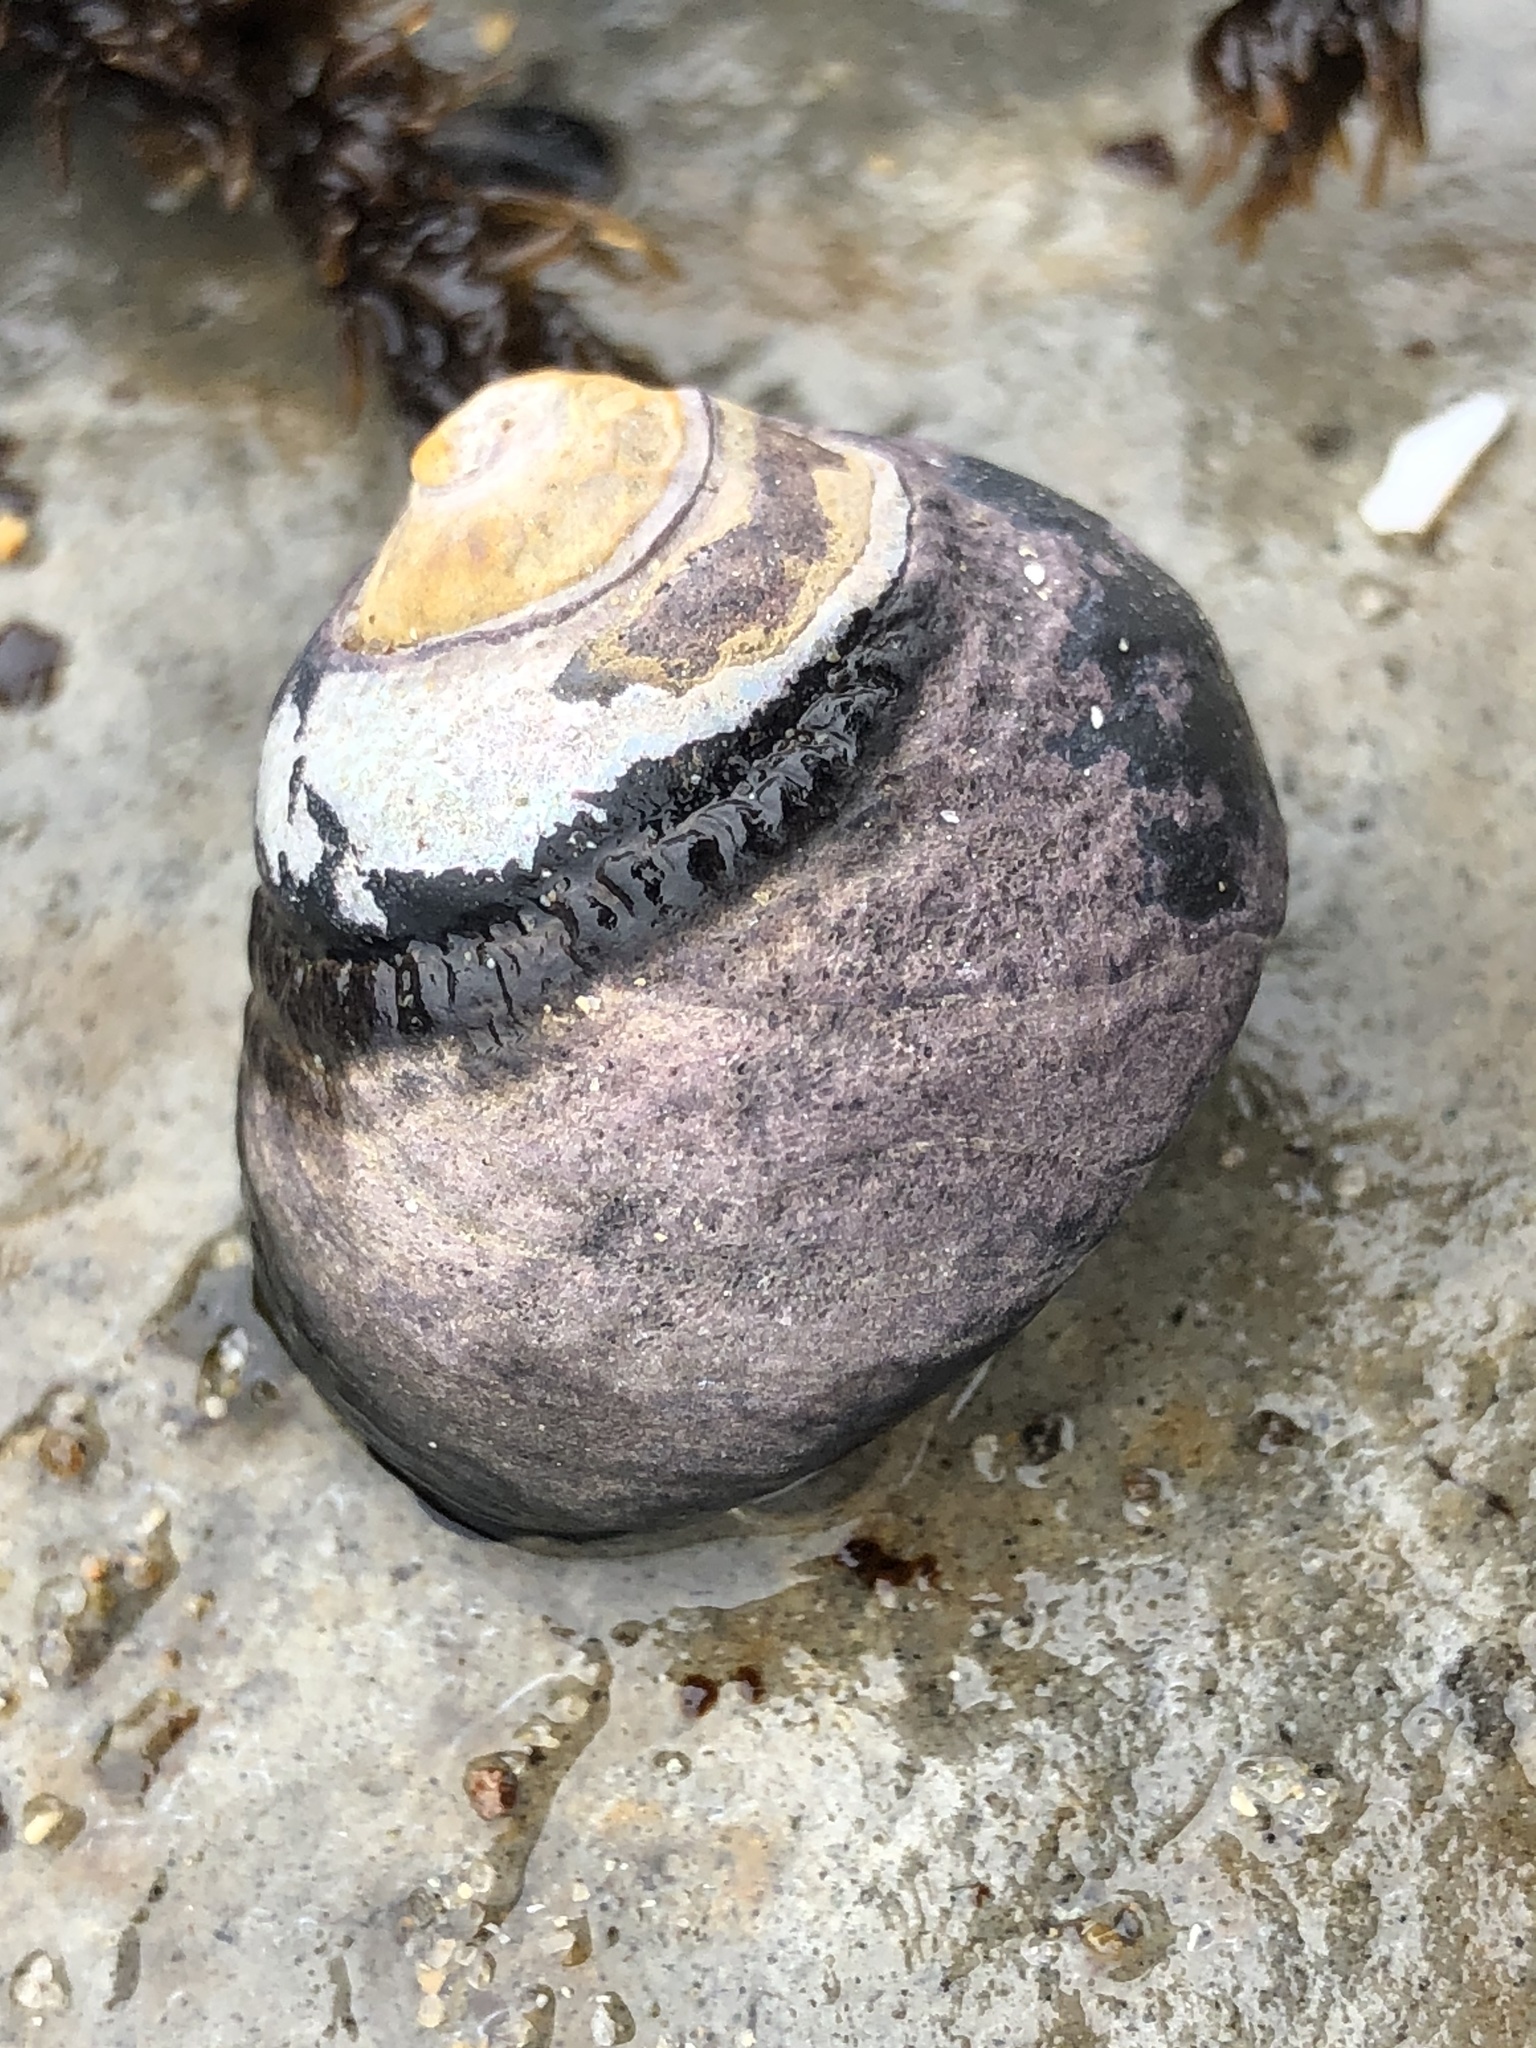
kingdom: Animalia
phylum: Mollusca
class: Gastropoda
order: Trochida
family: Tegulidae
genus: Tegula
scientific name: Tegula funebralis
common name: Black tegula
